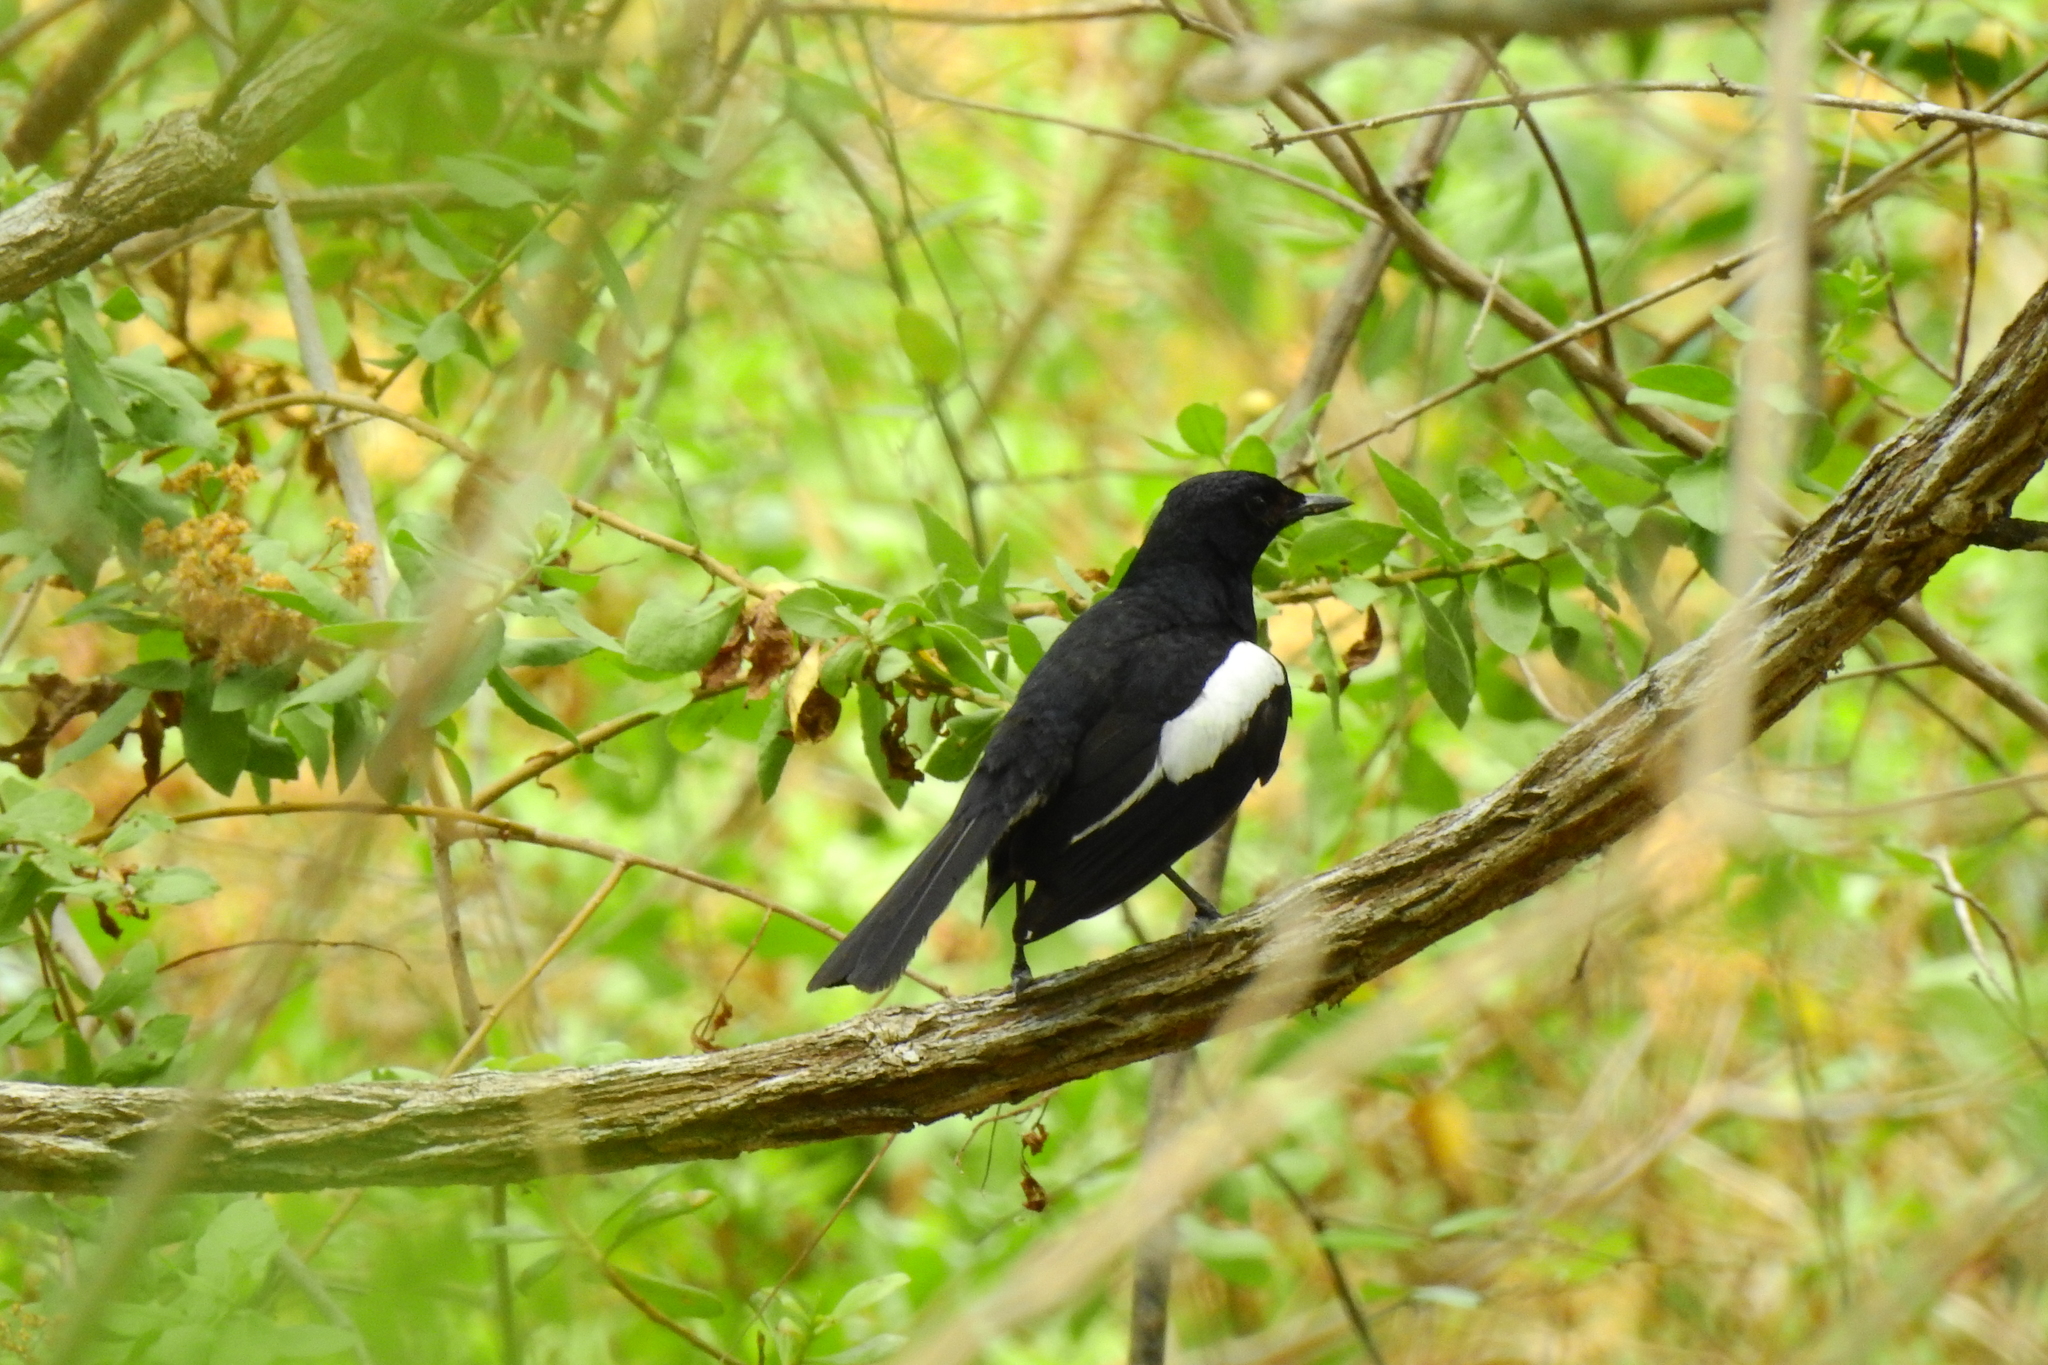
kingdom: Animalia
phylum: Chordata
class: Aves
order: Passeriformes
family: Muscicapidae
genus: Copsychus
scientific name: Copsychus saularis
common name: Oriental magpie-robin
